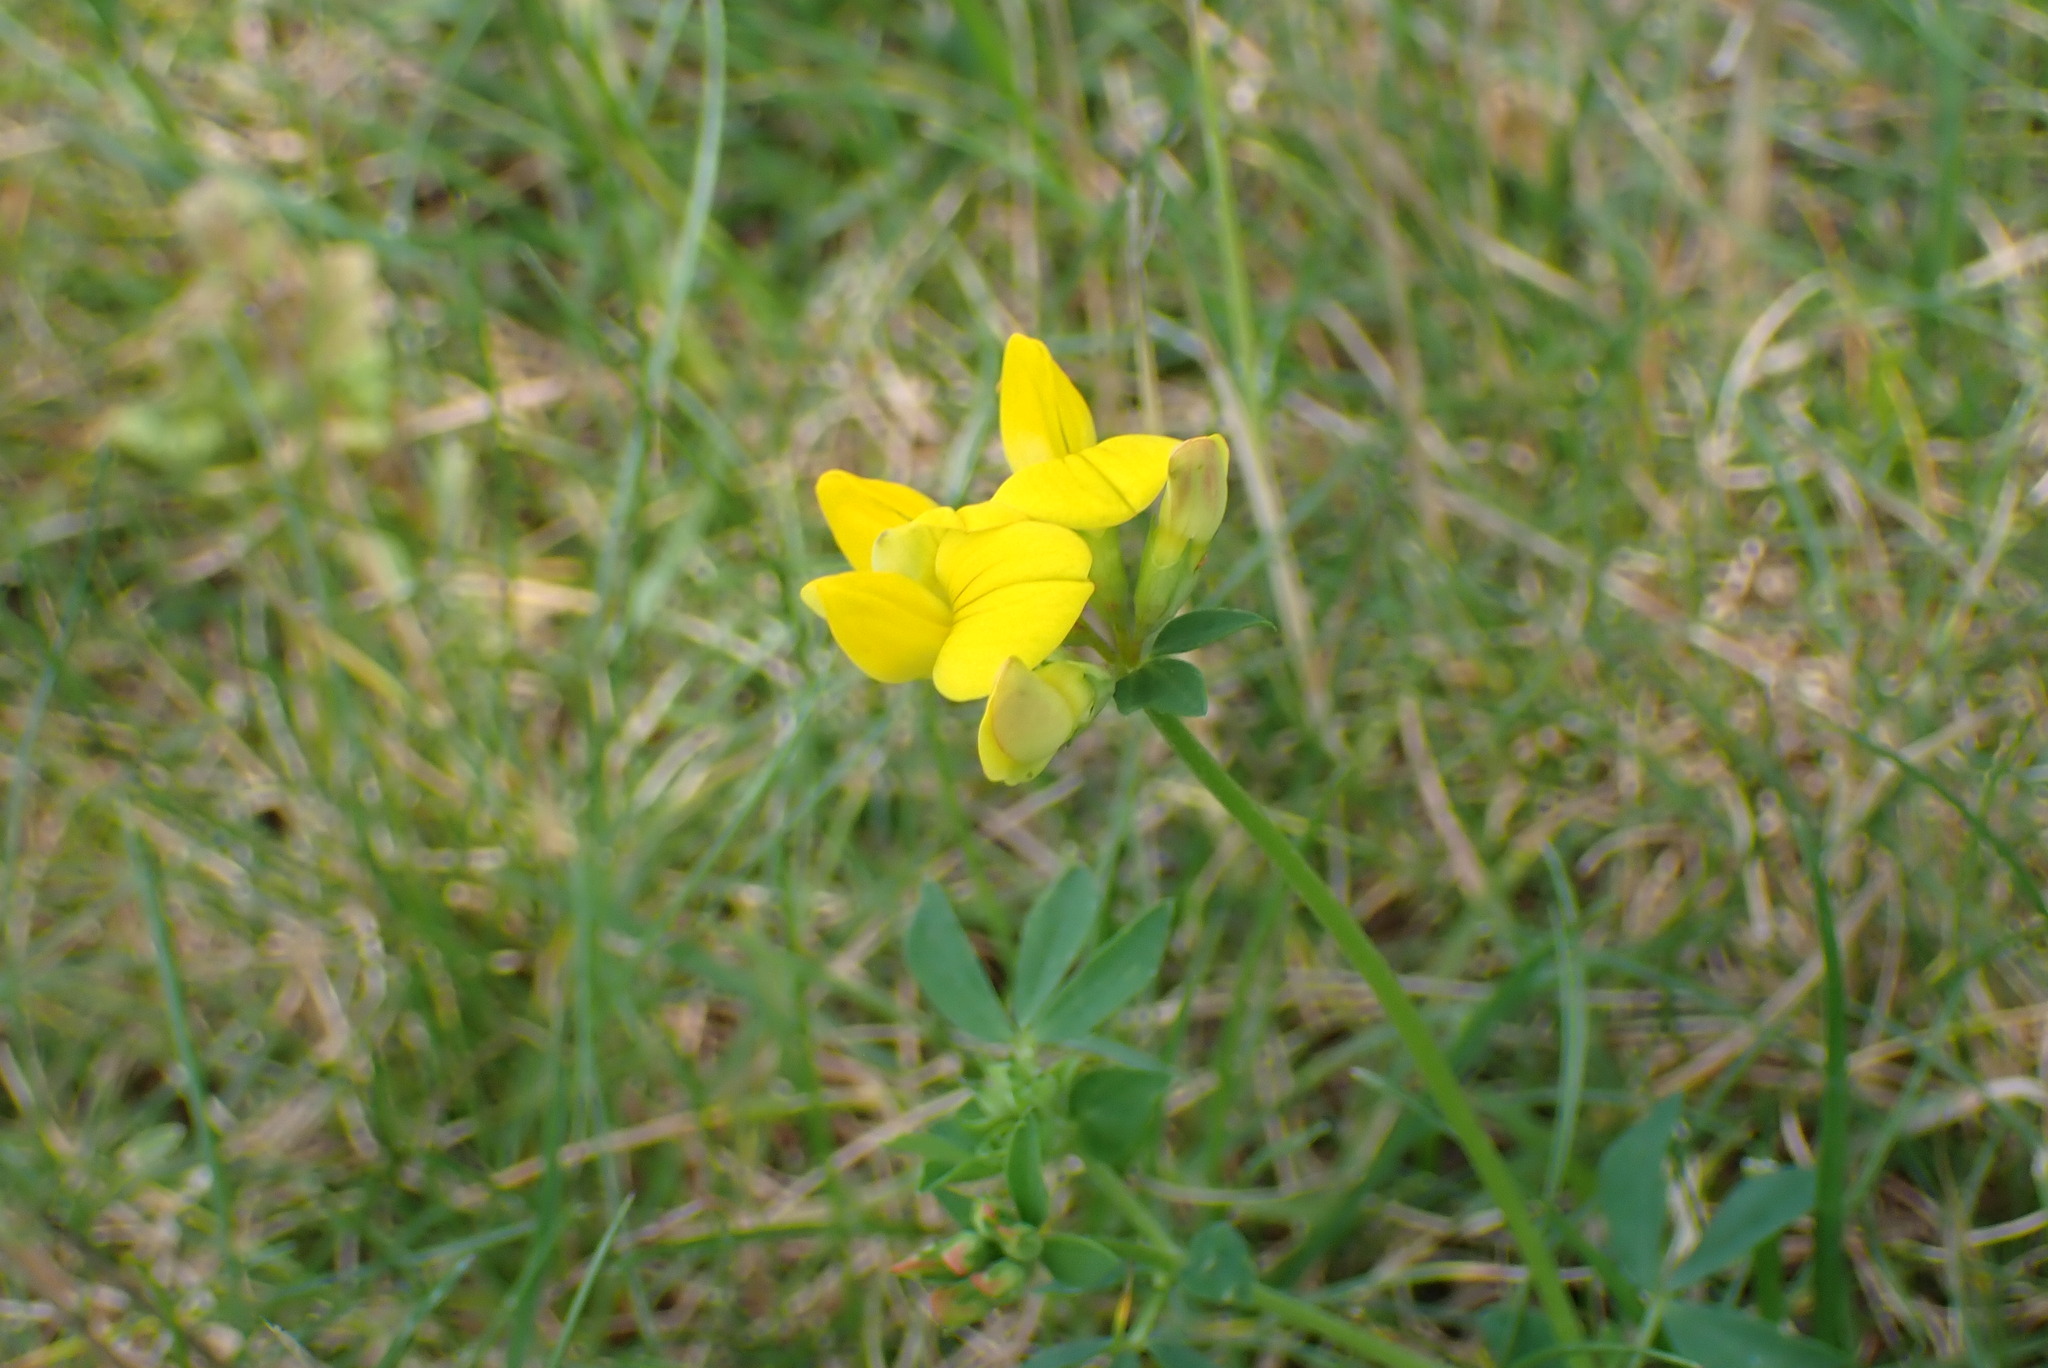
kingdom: Plantae
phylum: Tracheophyta
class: Magnoliopsida
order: Fabales
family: Fabaceae
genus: Lotus
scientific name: Lotus corniculatus
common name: Common bird's-foot-trefoil
